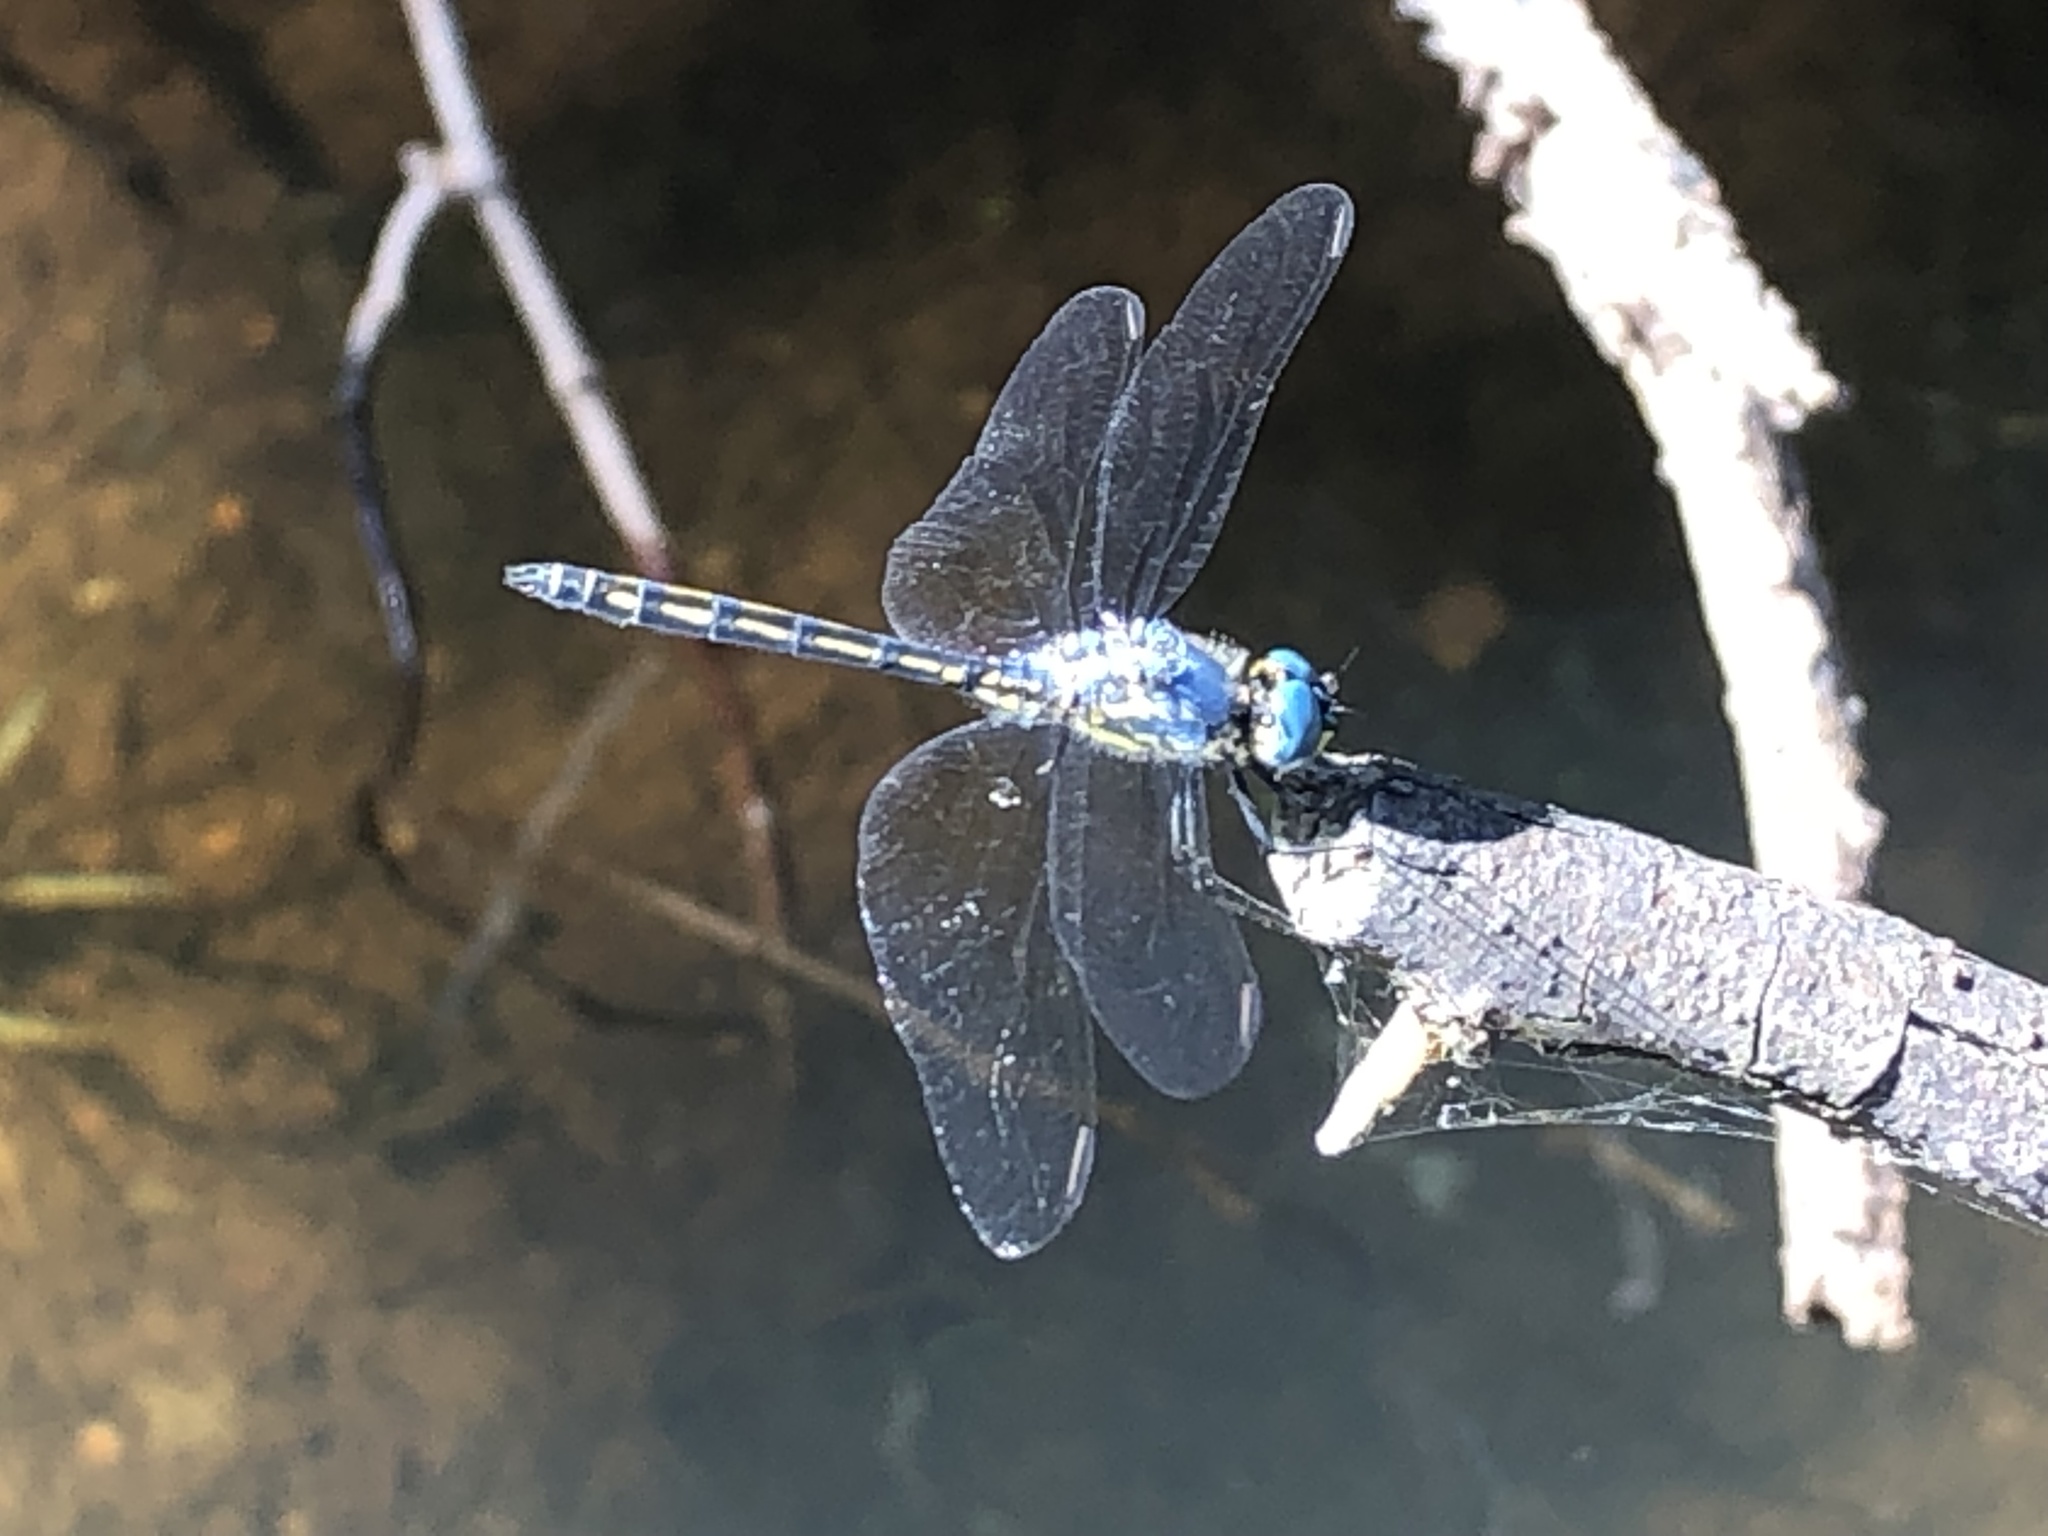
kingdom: Animalia
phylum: Arthropoda
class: Insecta
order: Odonata
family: Libellulidae
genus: Trithemis
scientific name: Trithemis stictica
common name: Jaunty dropwing
